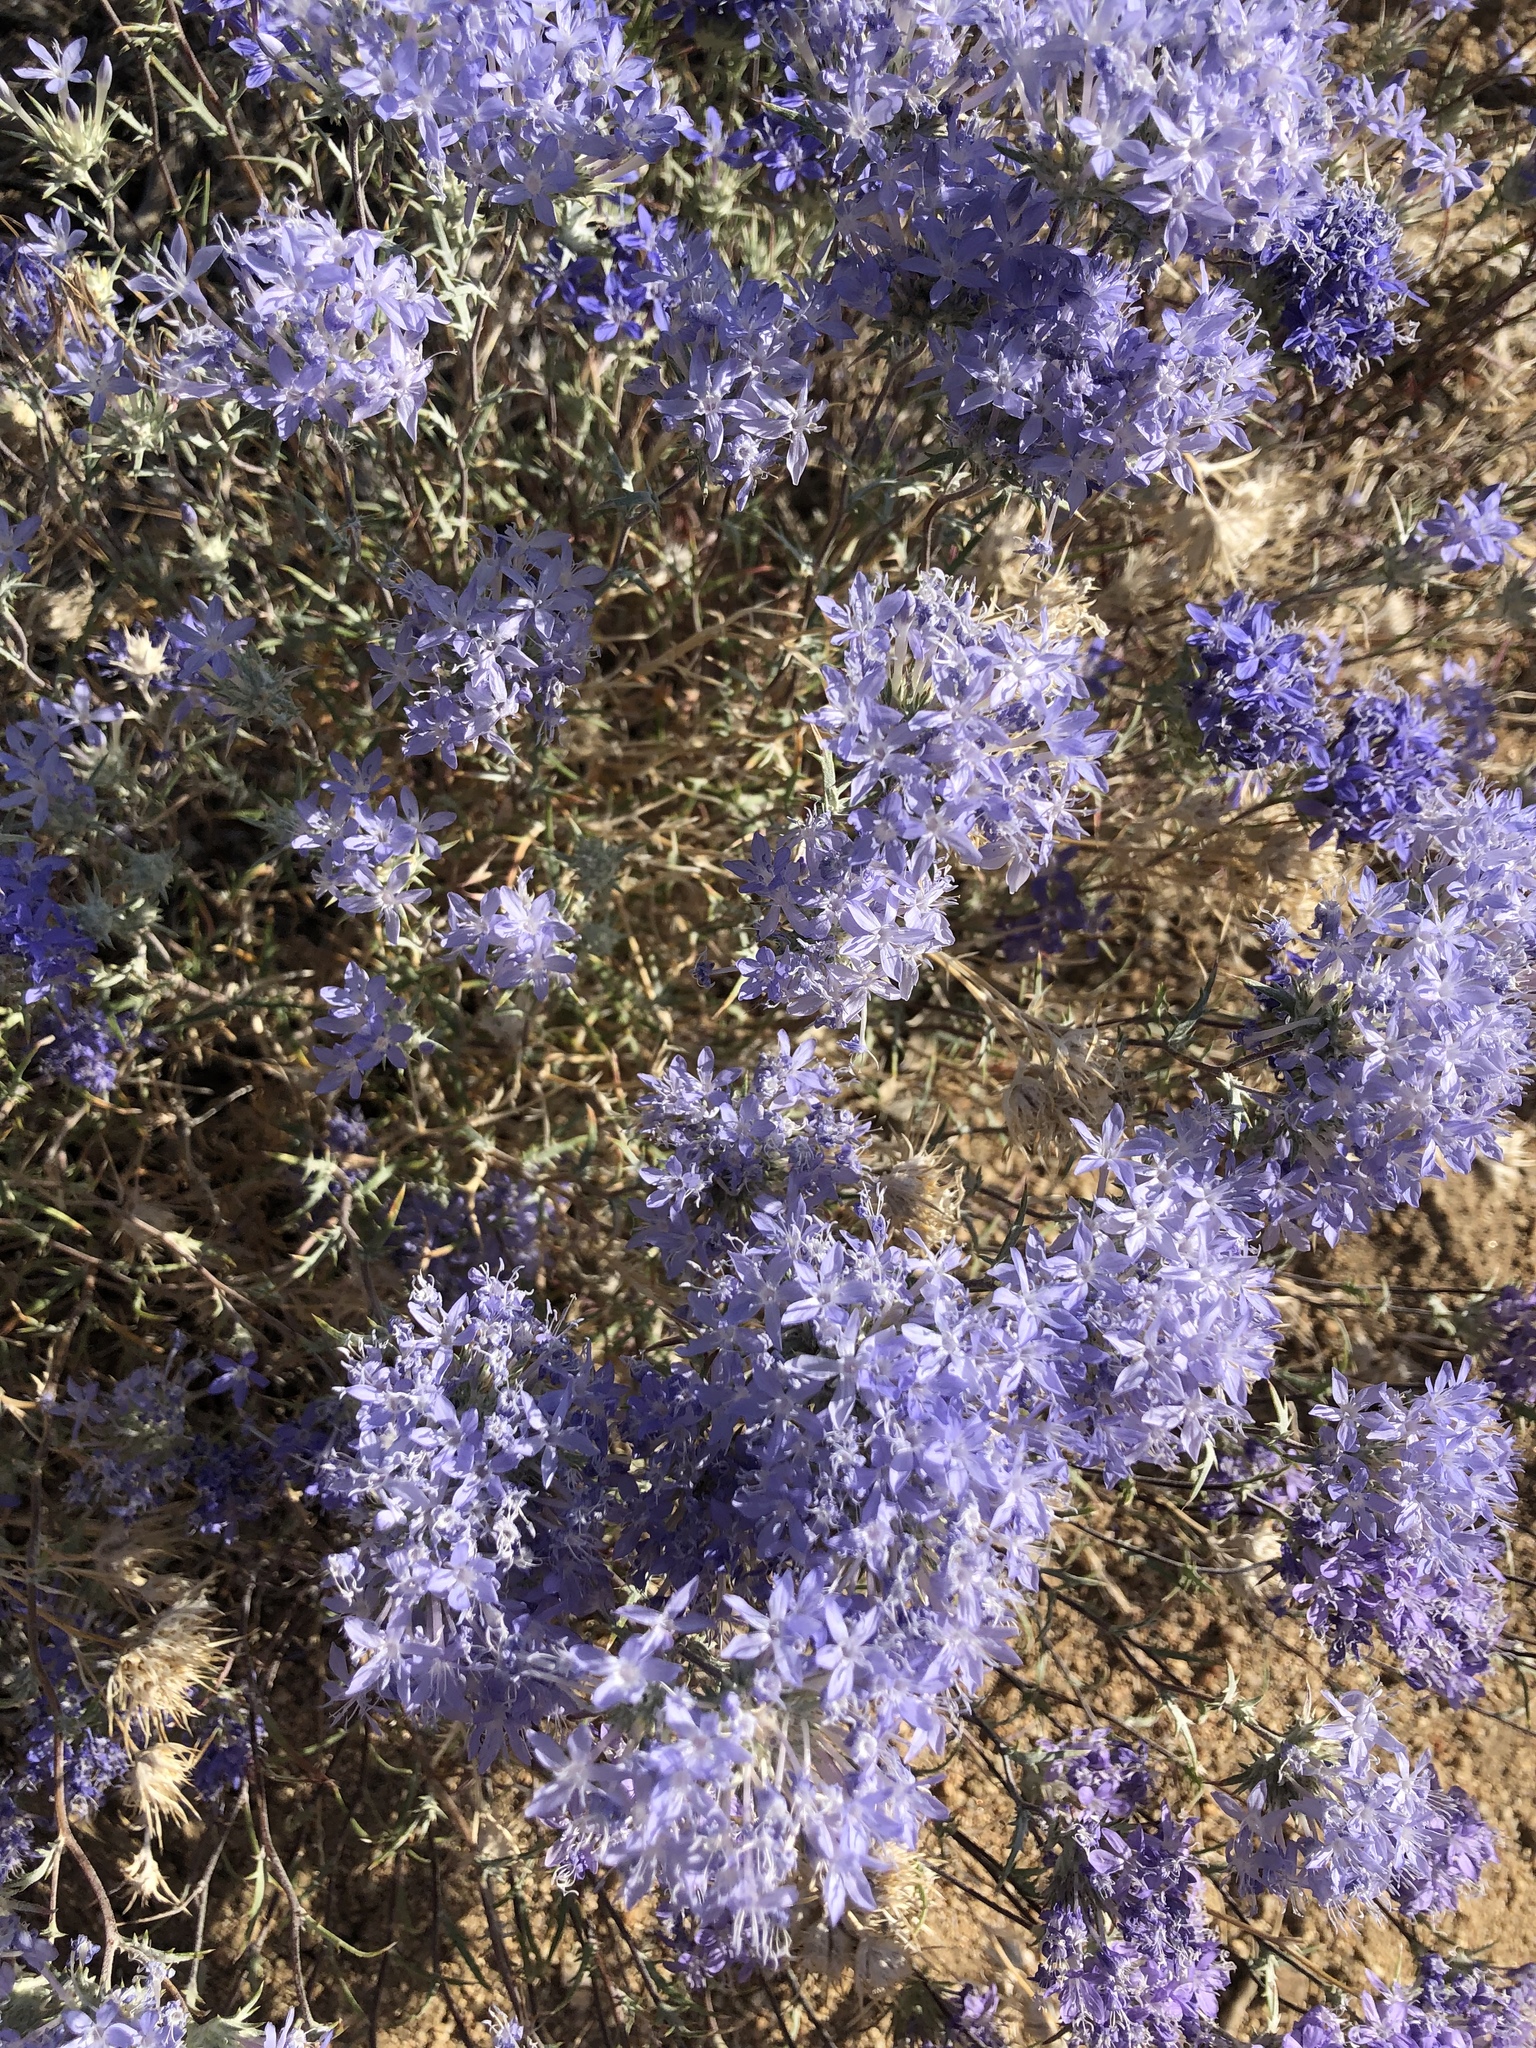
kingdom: Plantae
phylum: Tracheophyta
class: Magnoliopsida
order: Ericales
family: Polemoniaceae
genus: Eriastrum
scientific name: Eriastrum densifolium
